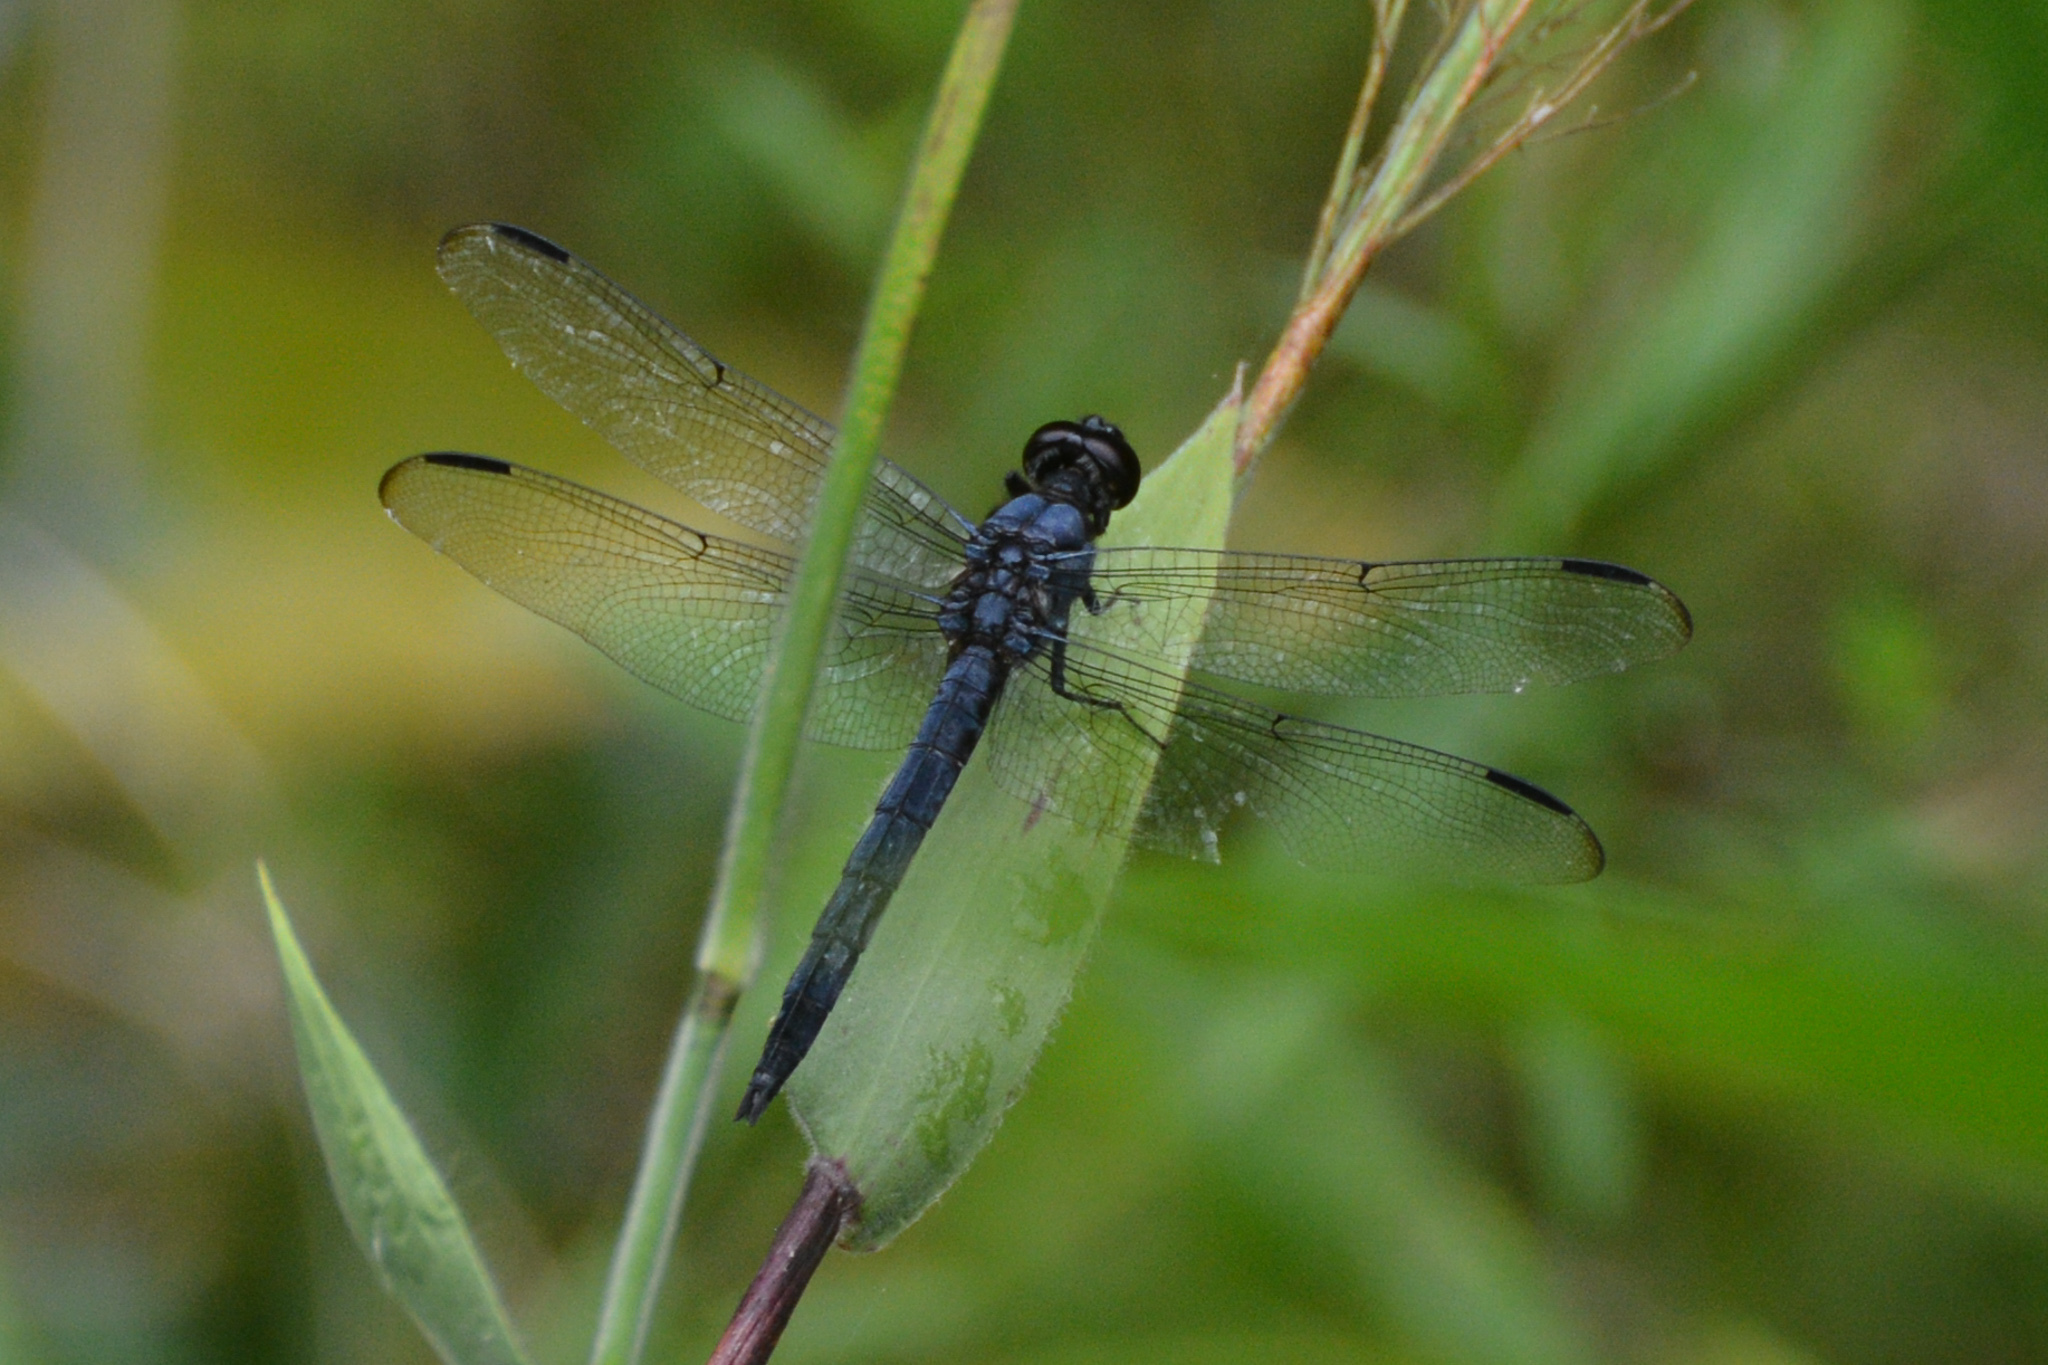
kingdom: Animalia
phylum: Arthropoda
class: Insecta
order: Odonata
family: Libellulidae
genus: Libellula
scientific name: Libellula incesta
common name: Slaty skimmer
